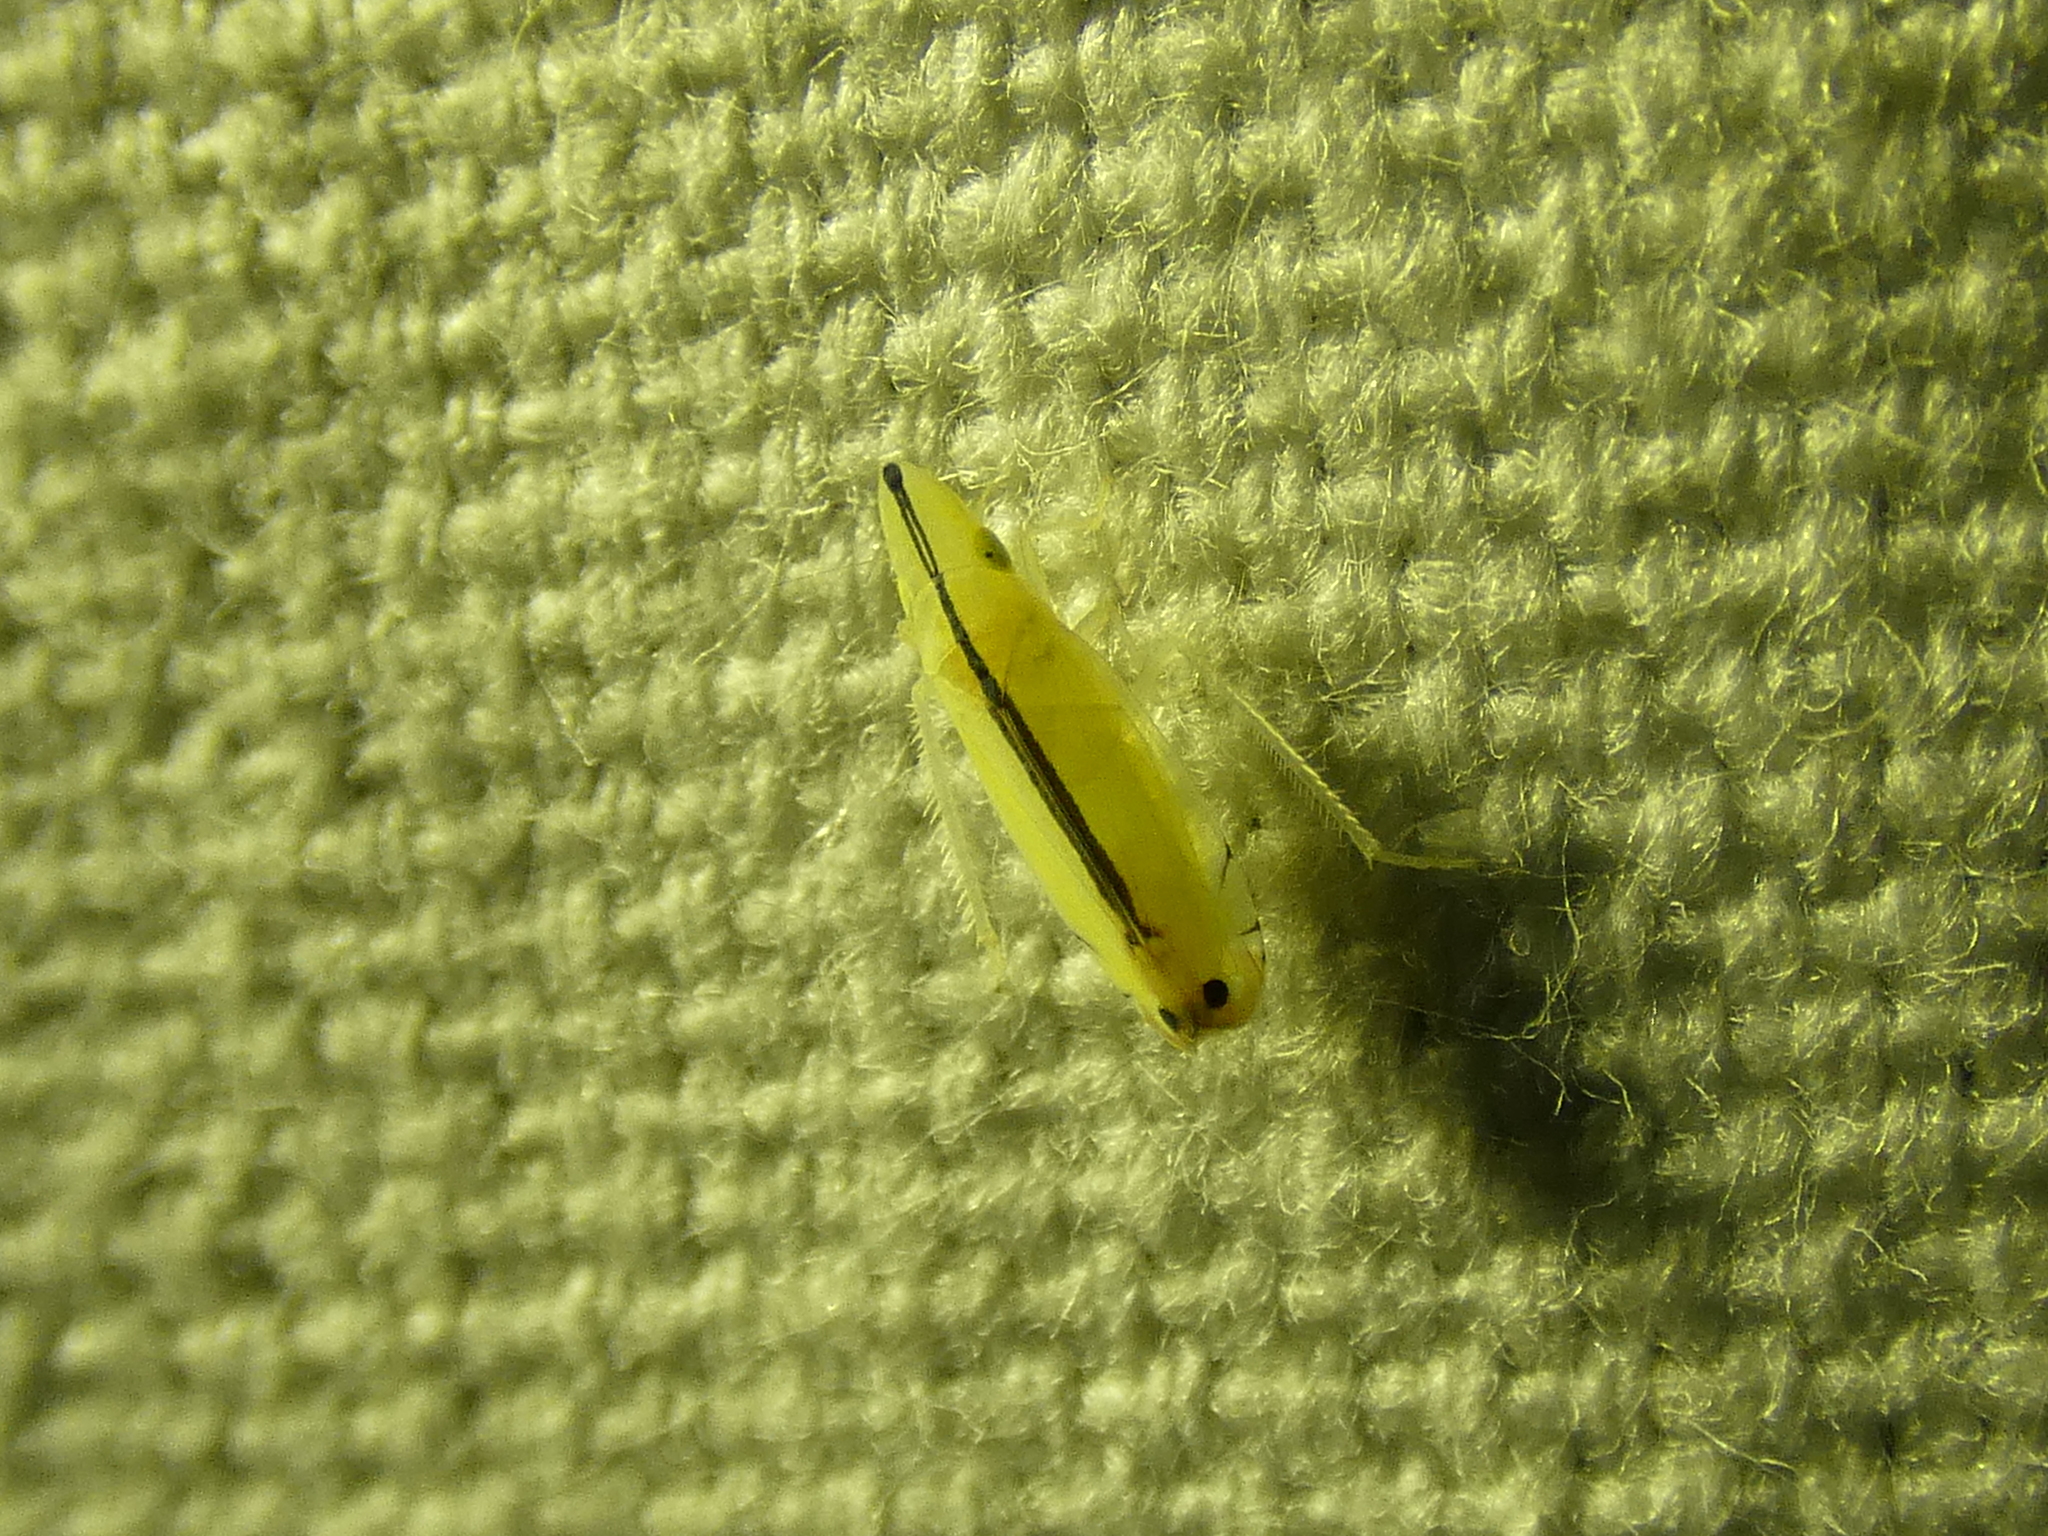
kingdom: Animalia
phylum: Arthropoda
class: Insecta
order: Hemiptera
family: Cicadellidae
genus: Sophonia
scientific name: Sophonia orientalis
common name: Two-spotted leafhopper
